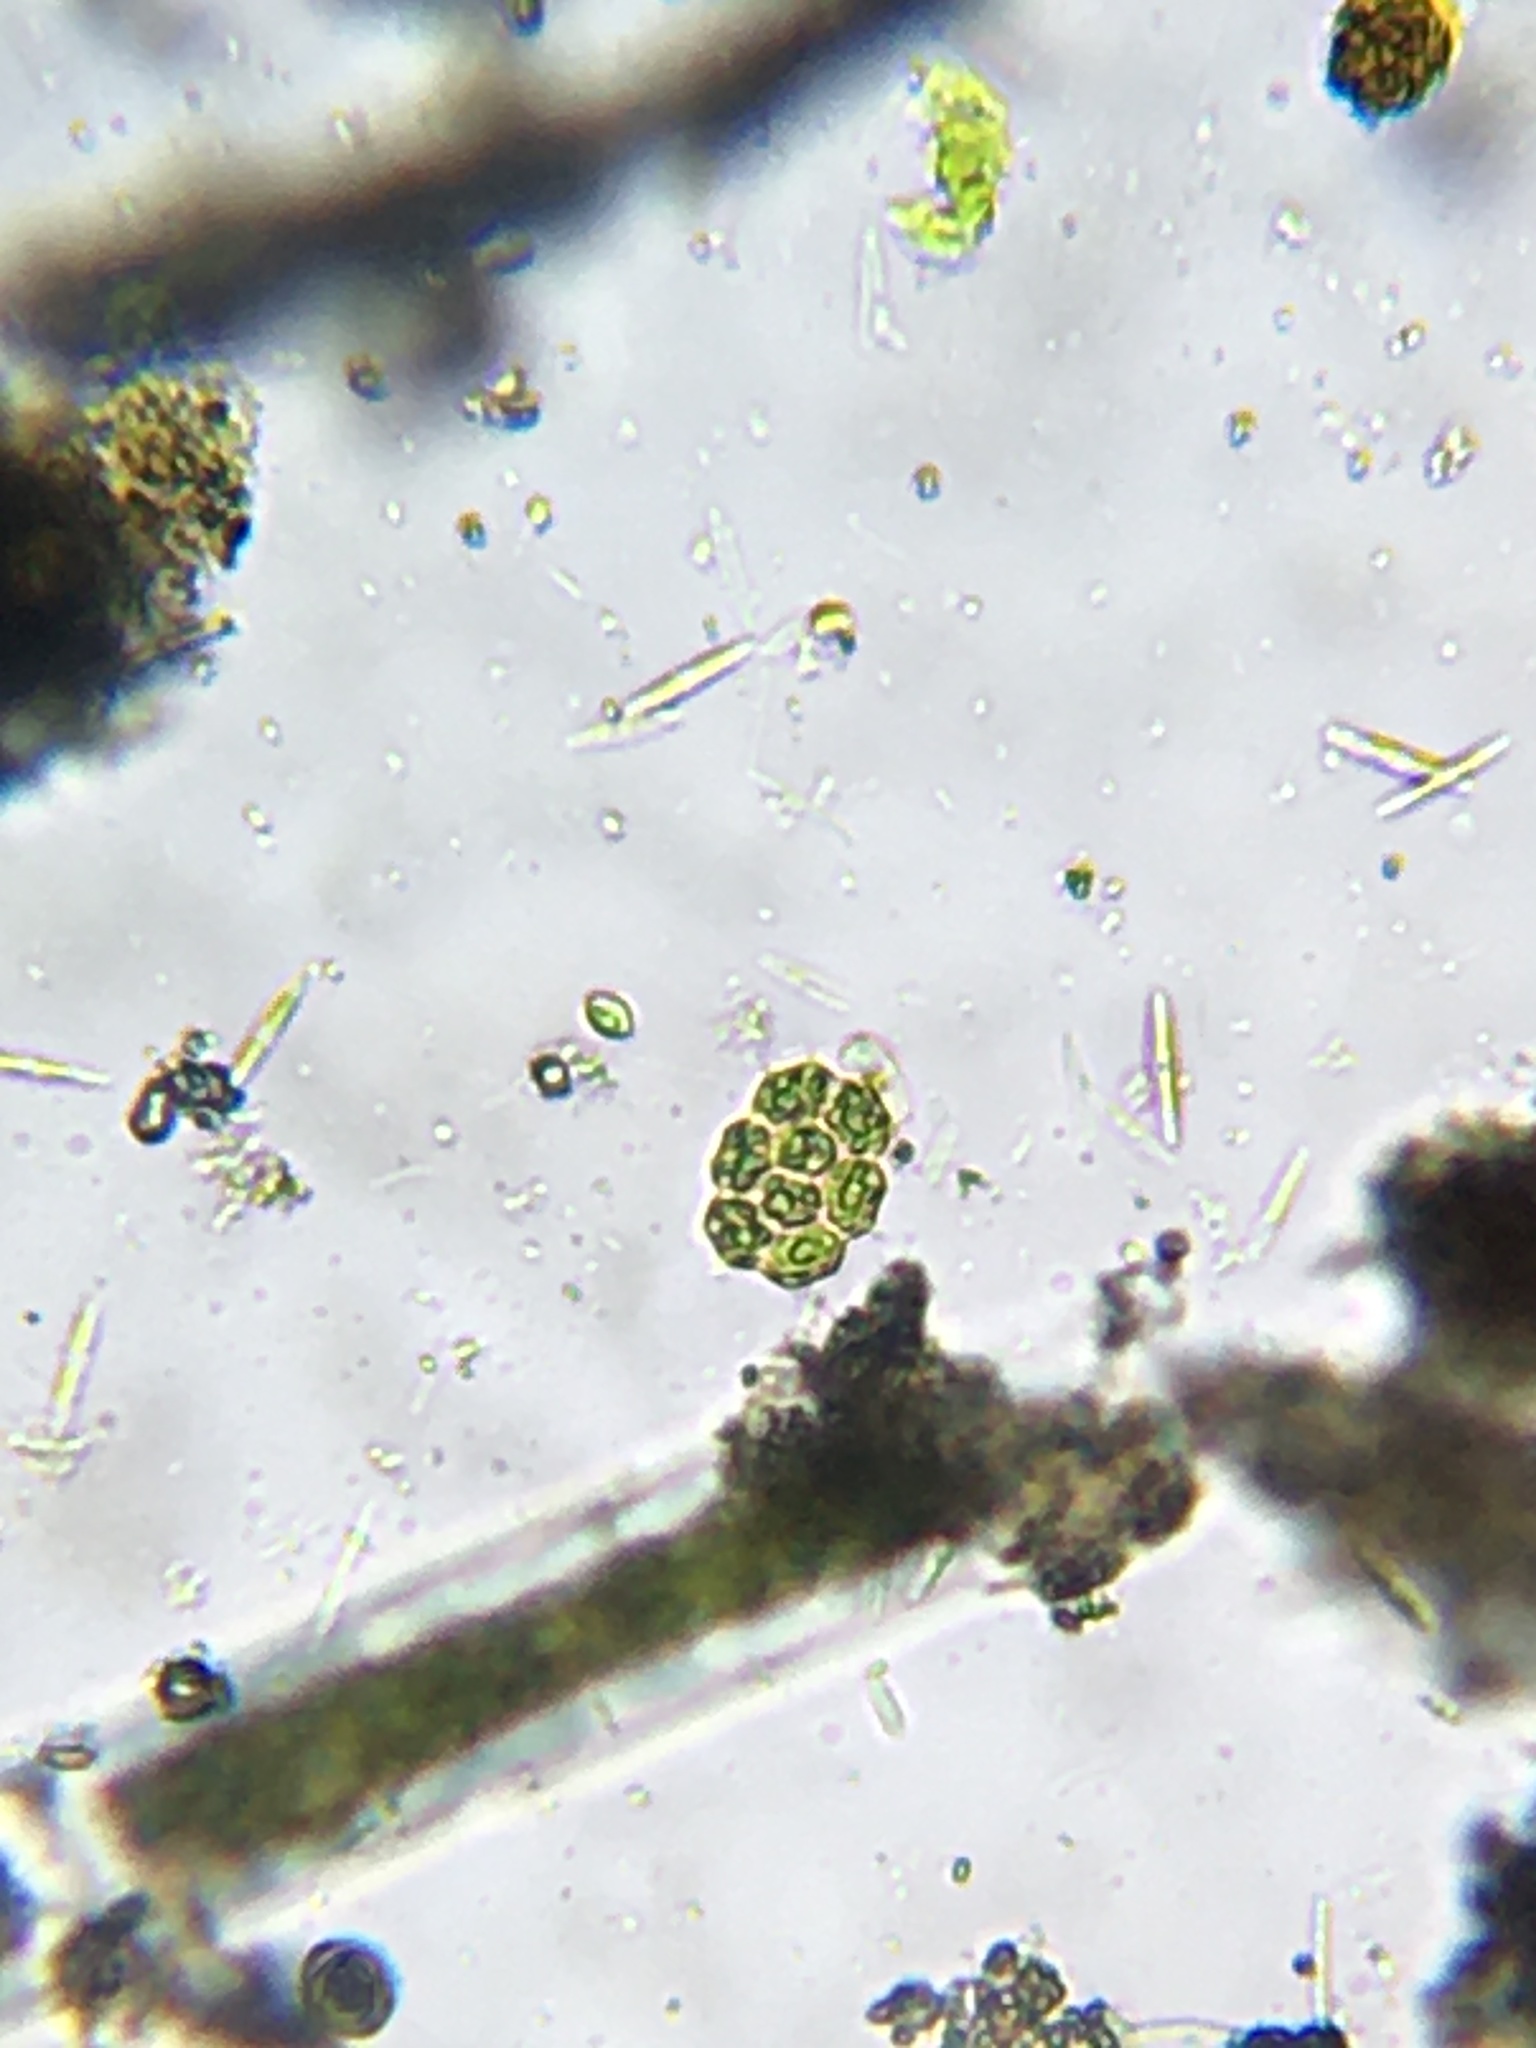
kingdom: Plantae
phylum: Chlorophyta
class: Chlorophyceae
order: Sphaeropleales
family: Hydrodictyaceae
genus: Pseudopediastrum
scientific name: Pseudopediastrum integrum
